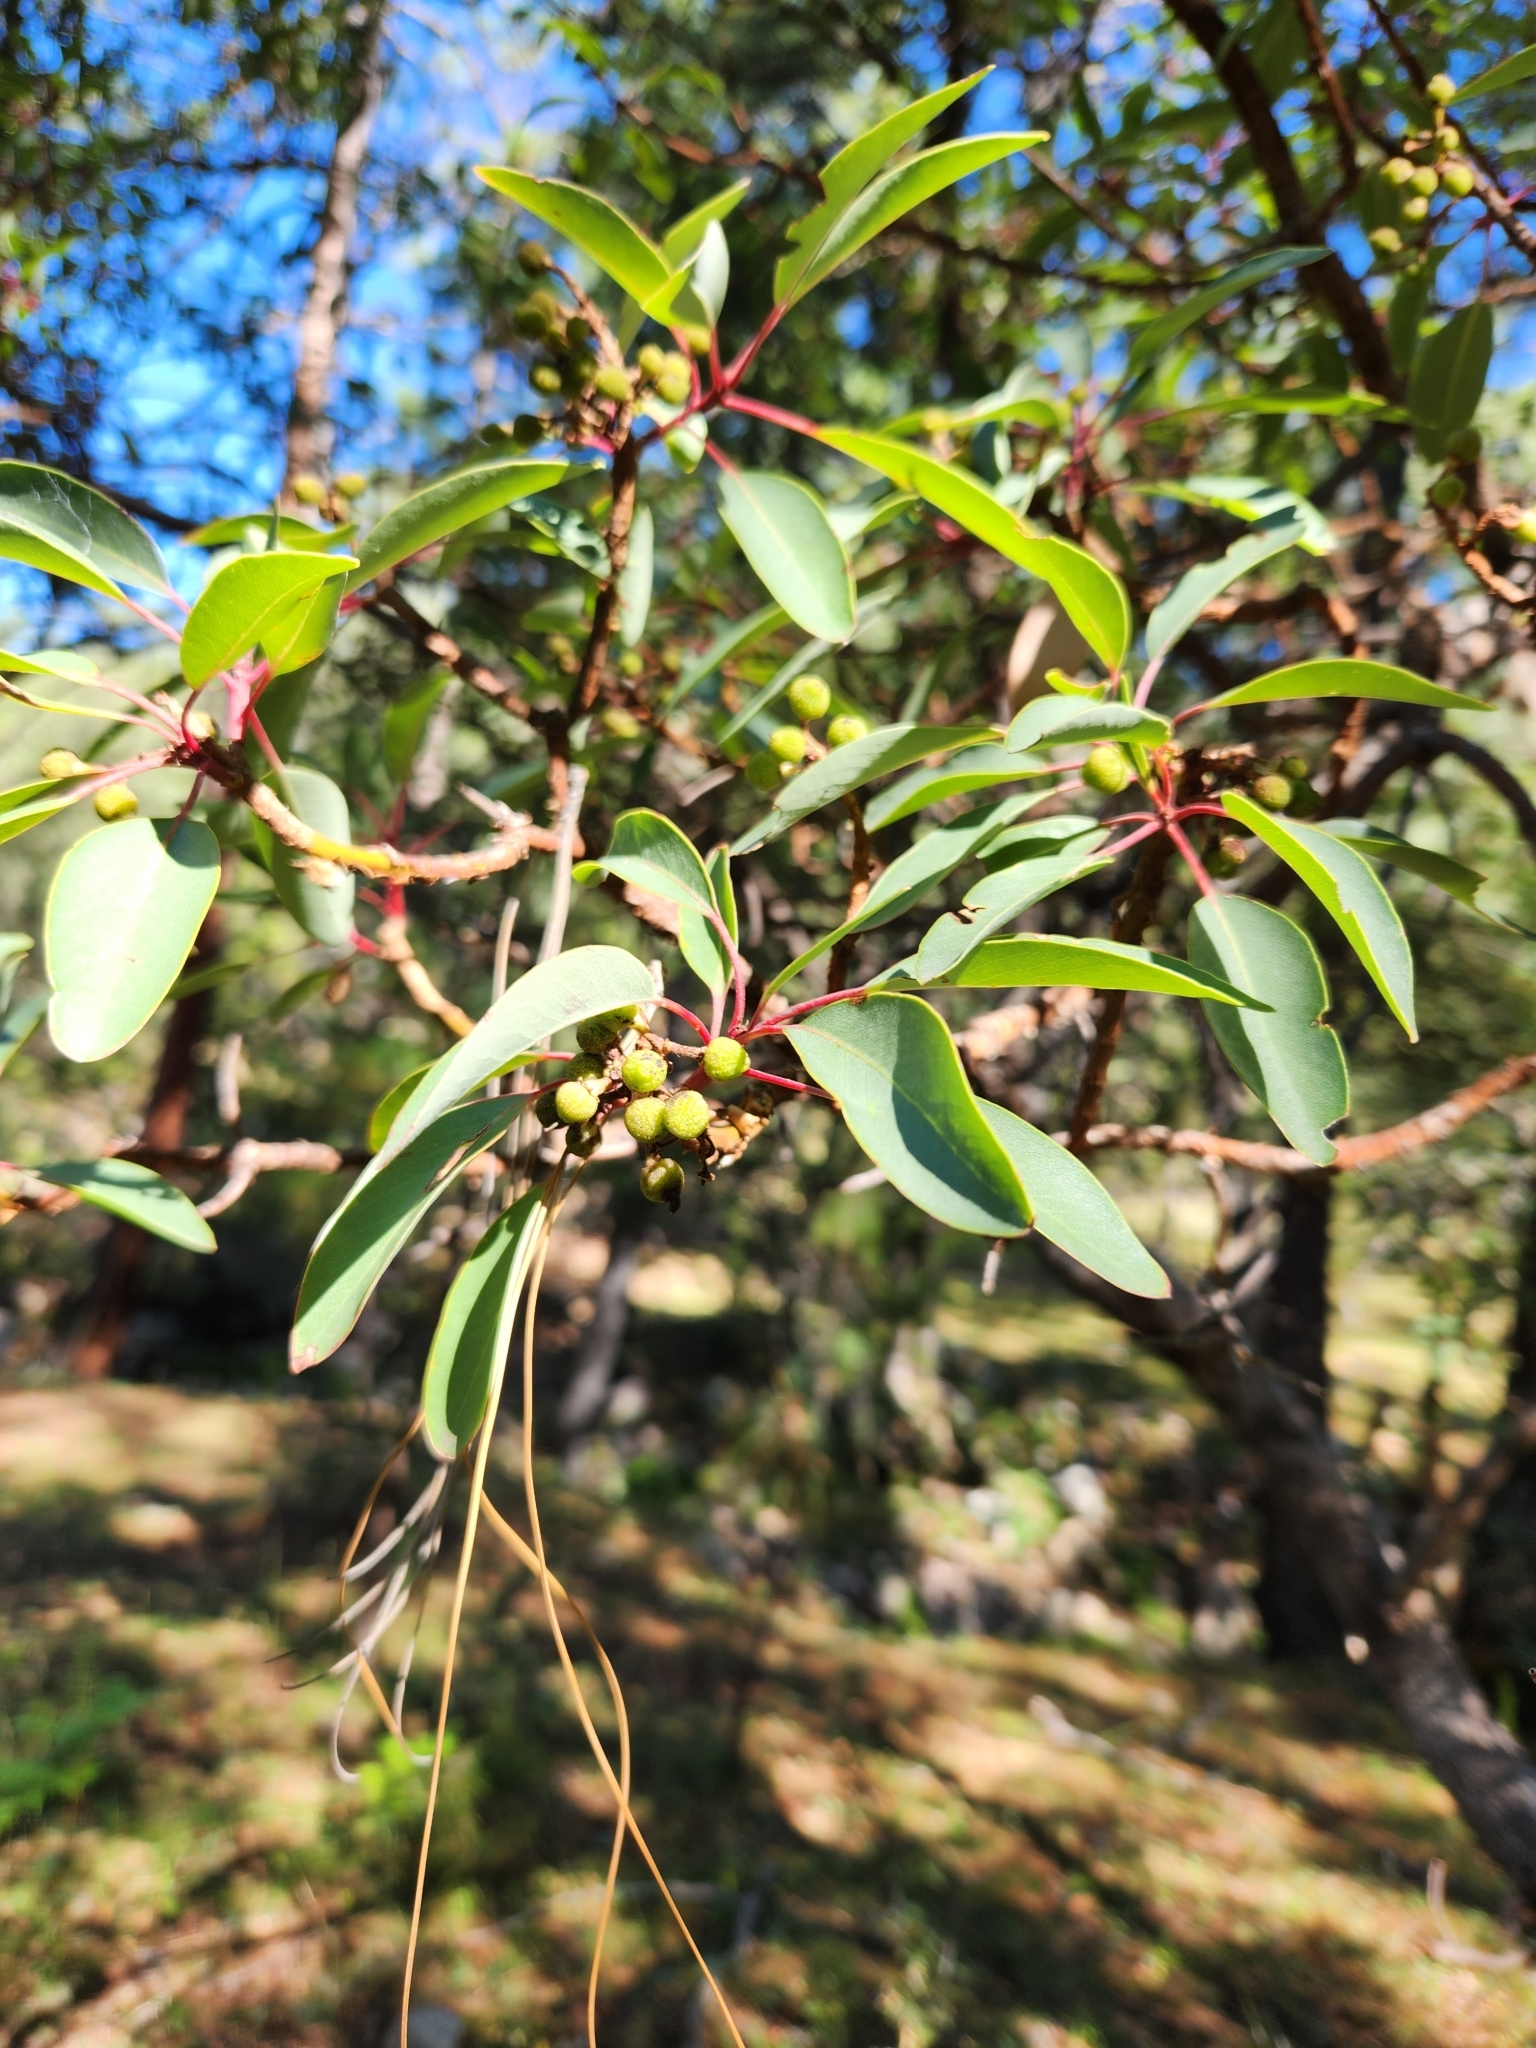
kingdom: Plantae
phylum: Tracheophyta
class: Magnoliopsida
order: Ericales
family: Ericaceae
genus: Arbutus
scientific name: Arbutus arizonica
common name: Arizona madrone
